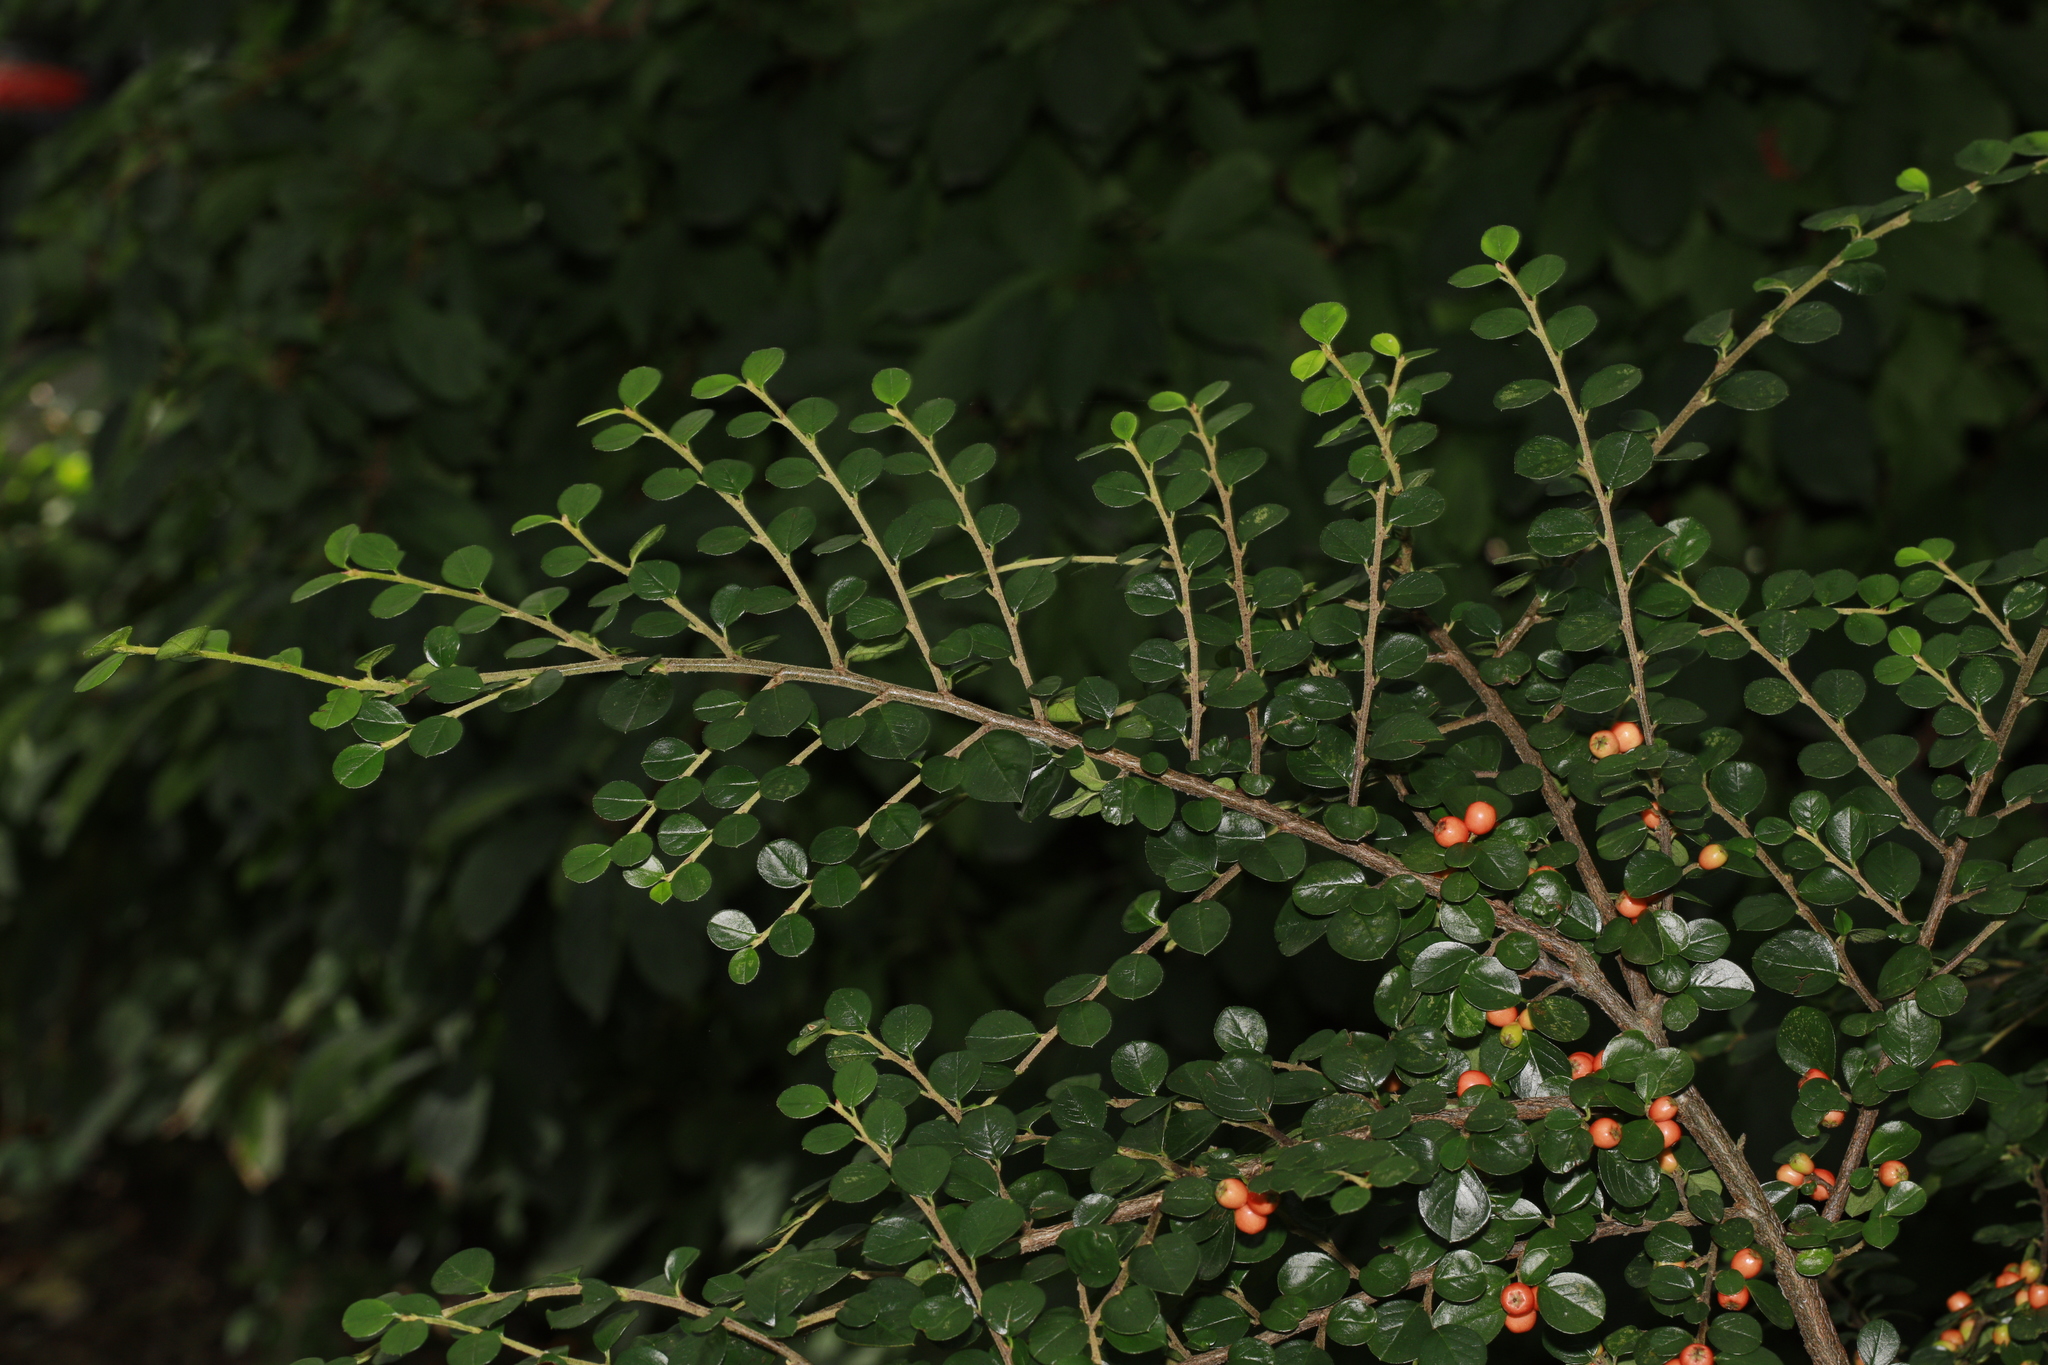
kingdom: Plantae
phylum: Tracheophyta
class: Magnoliopsida
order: Rosales
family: Rosaceae
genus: Cotoneaster
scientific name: Cotoneaster hjelmqvistii
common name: Hjelmqvist's cotoneaster
